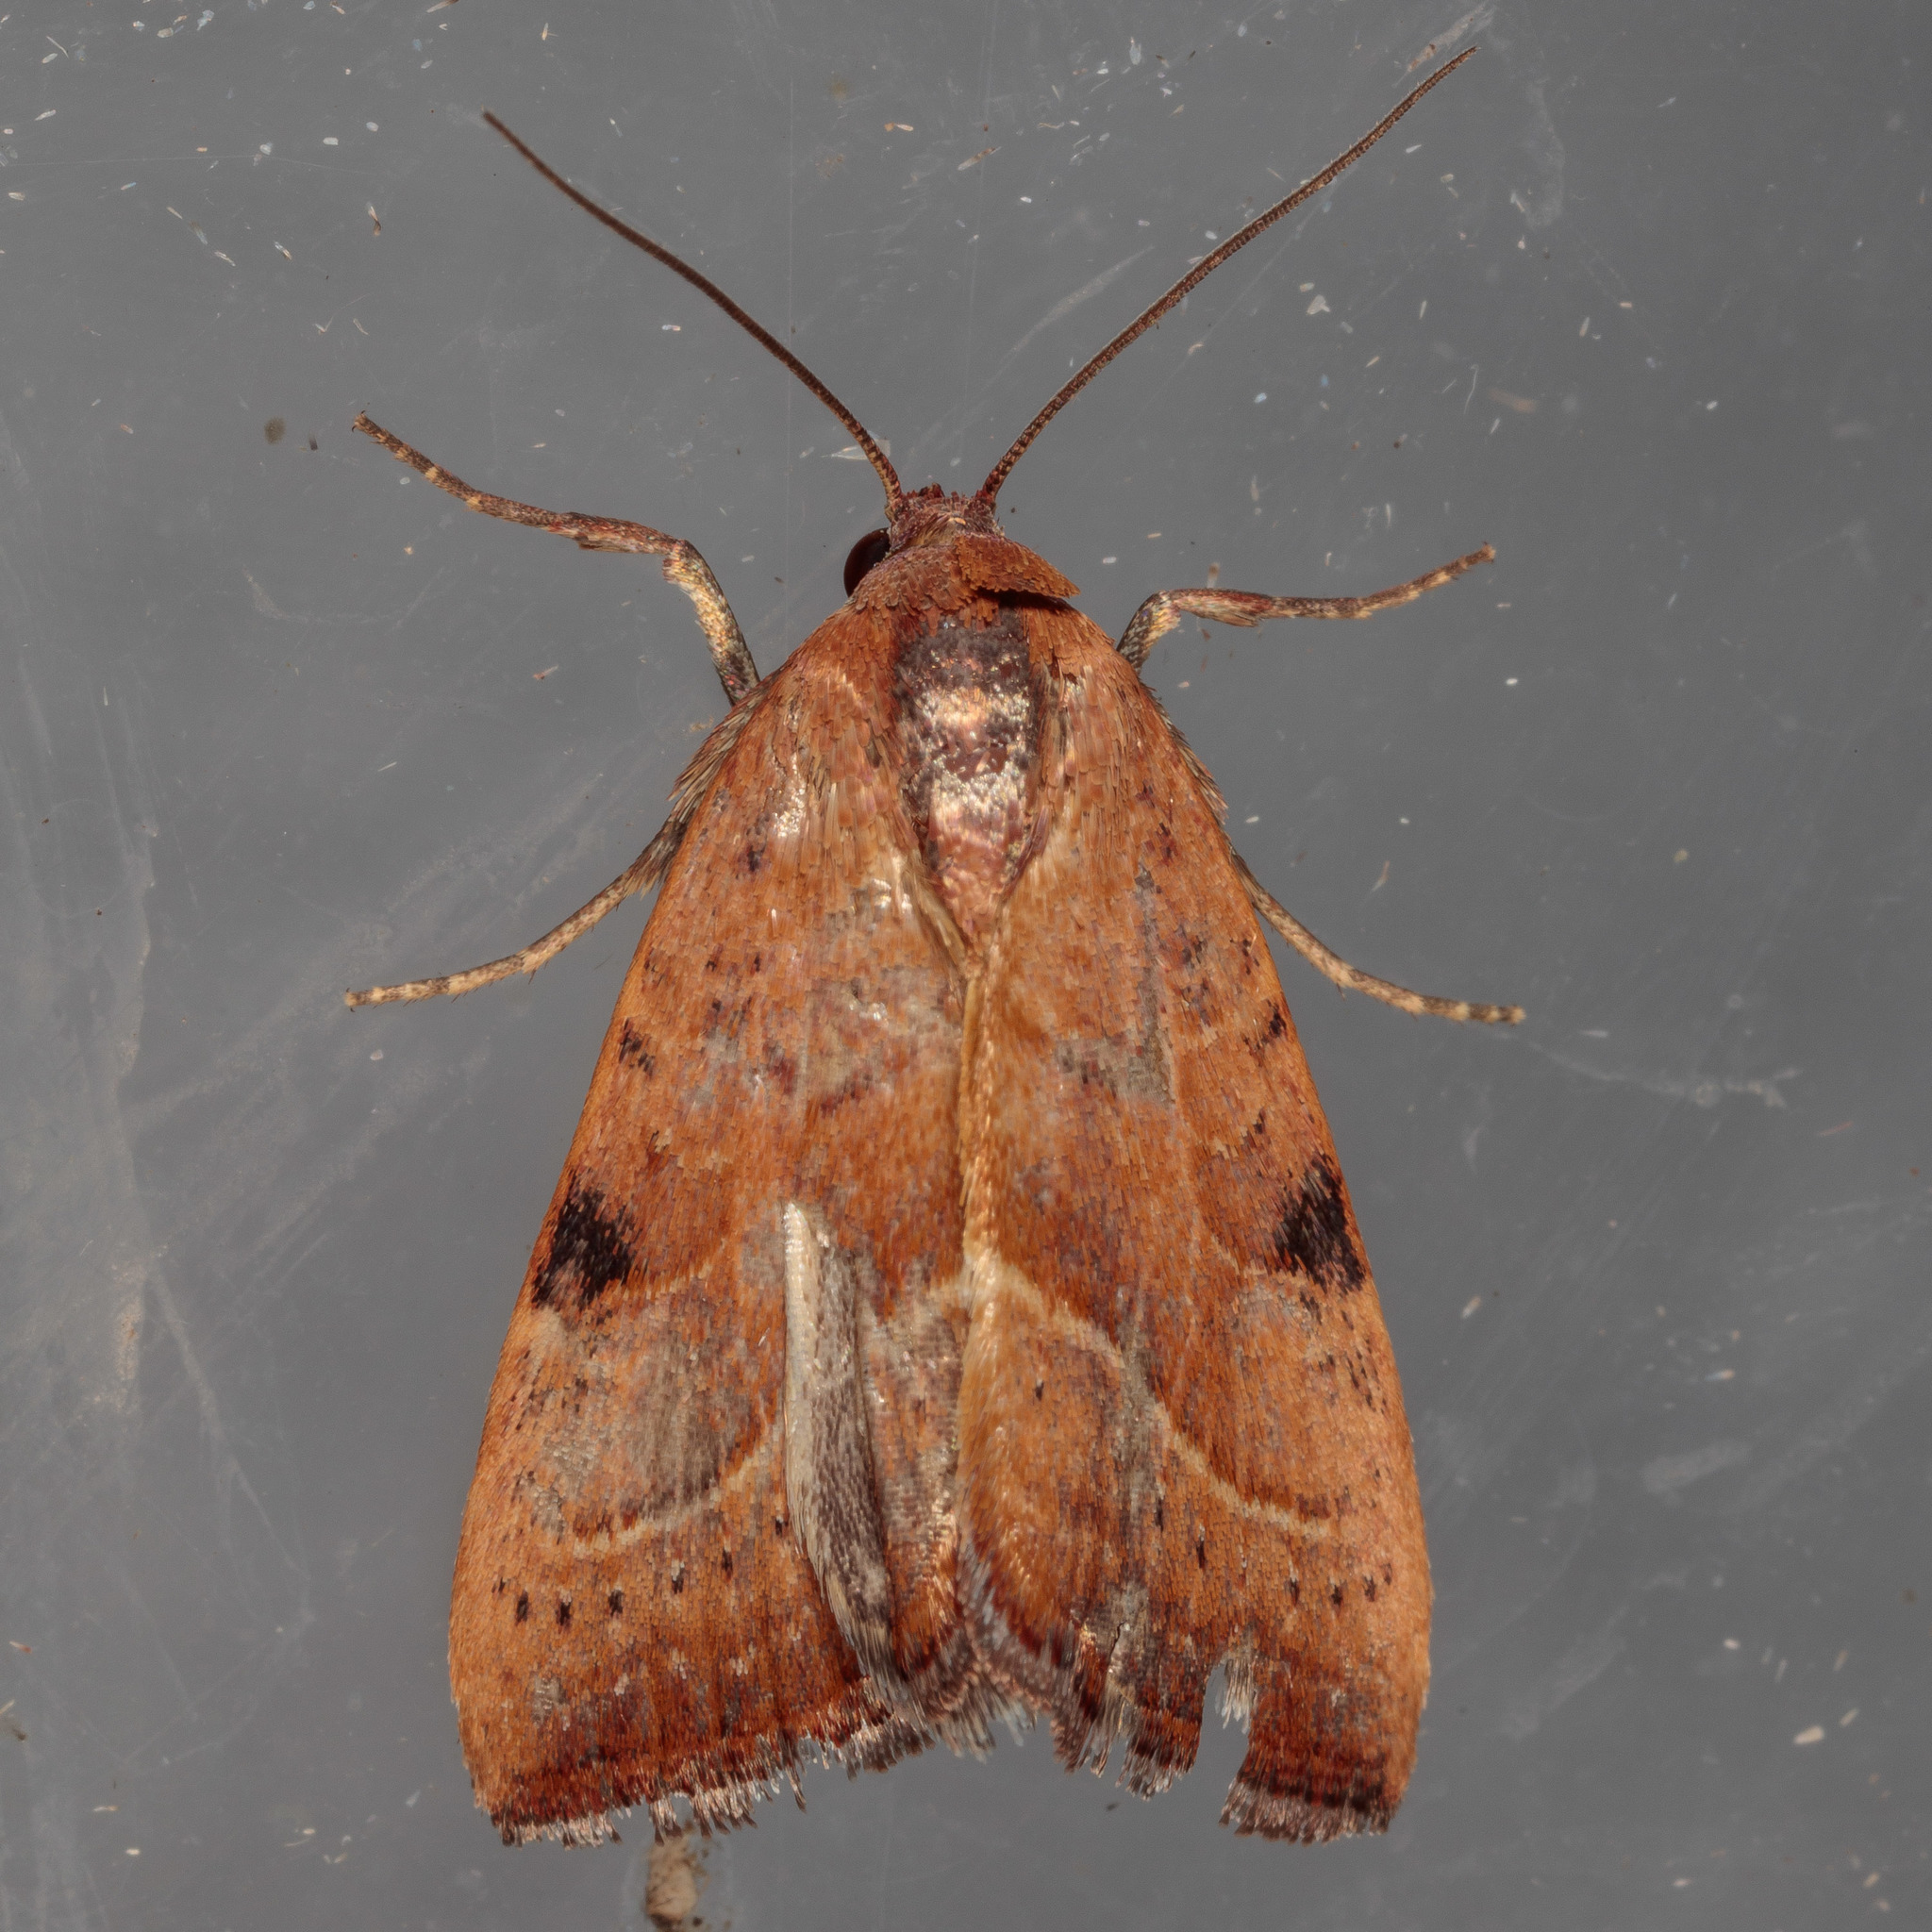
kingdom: Animalia
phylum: Arthropoda
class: Insecta
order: Lepidoptera
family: Noctuidae
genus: Galgula
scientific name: Galgula partita
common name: Wedgeling
